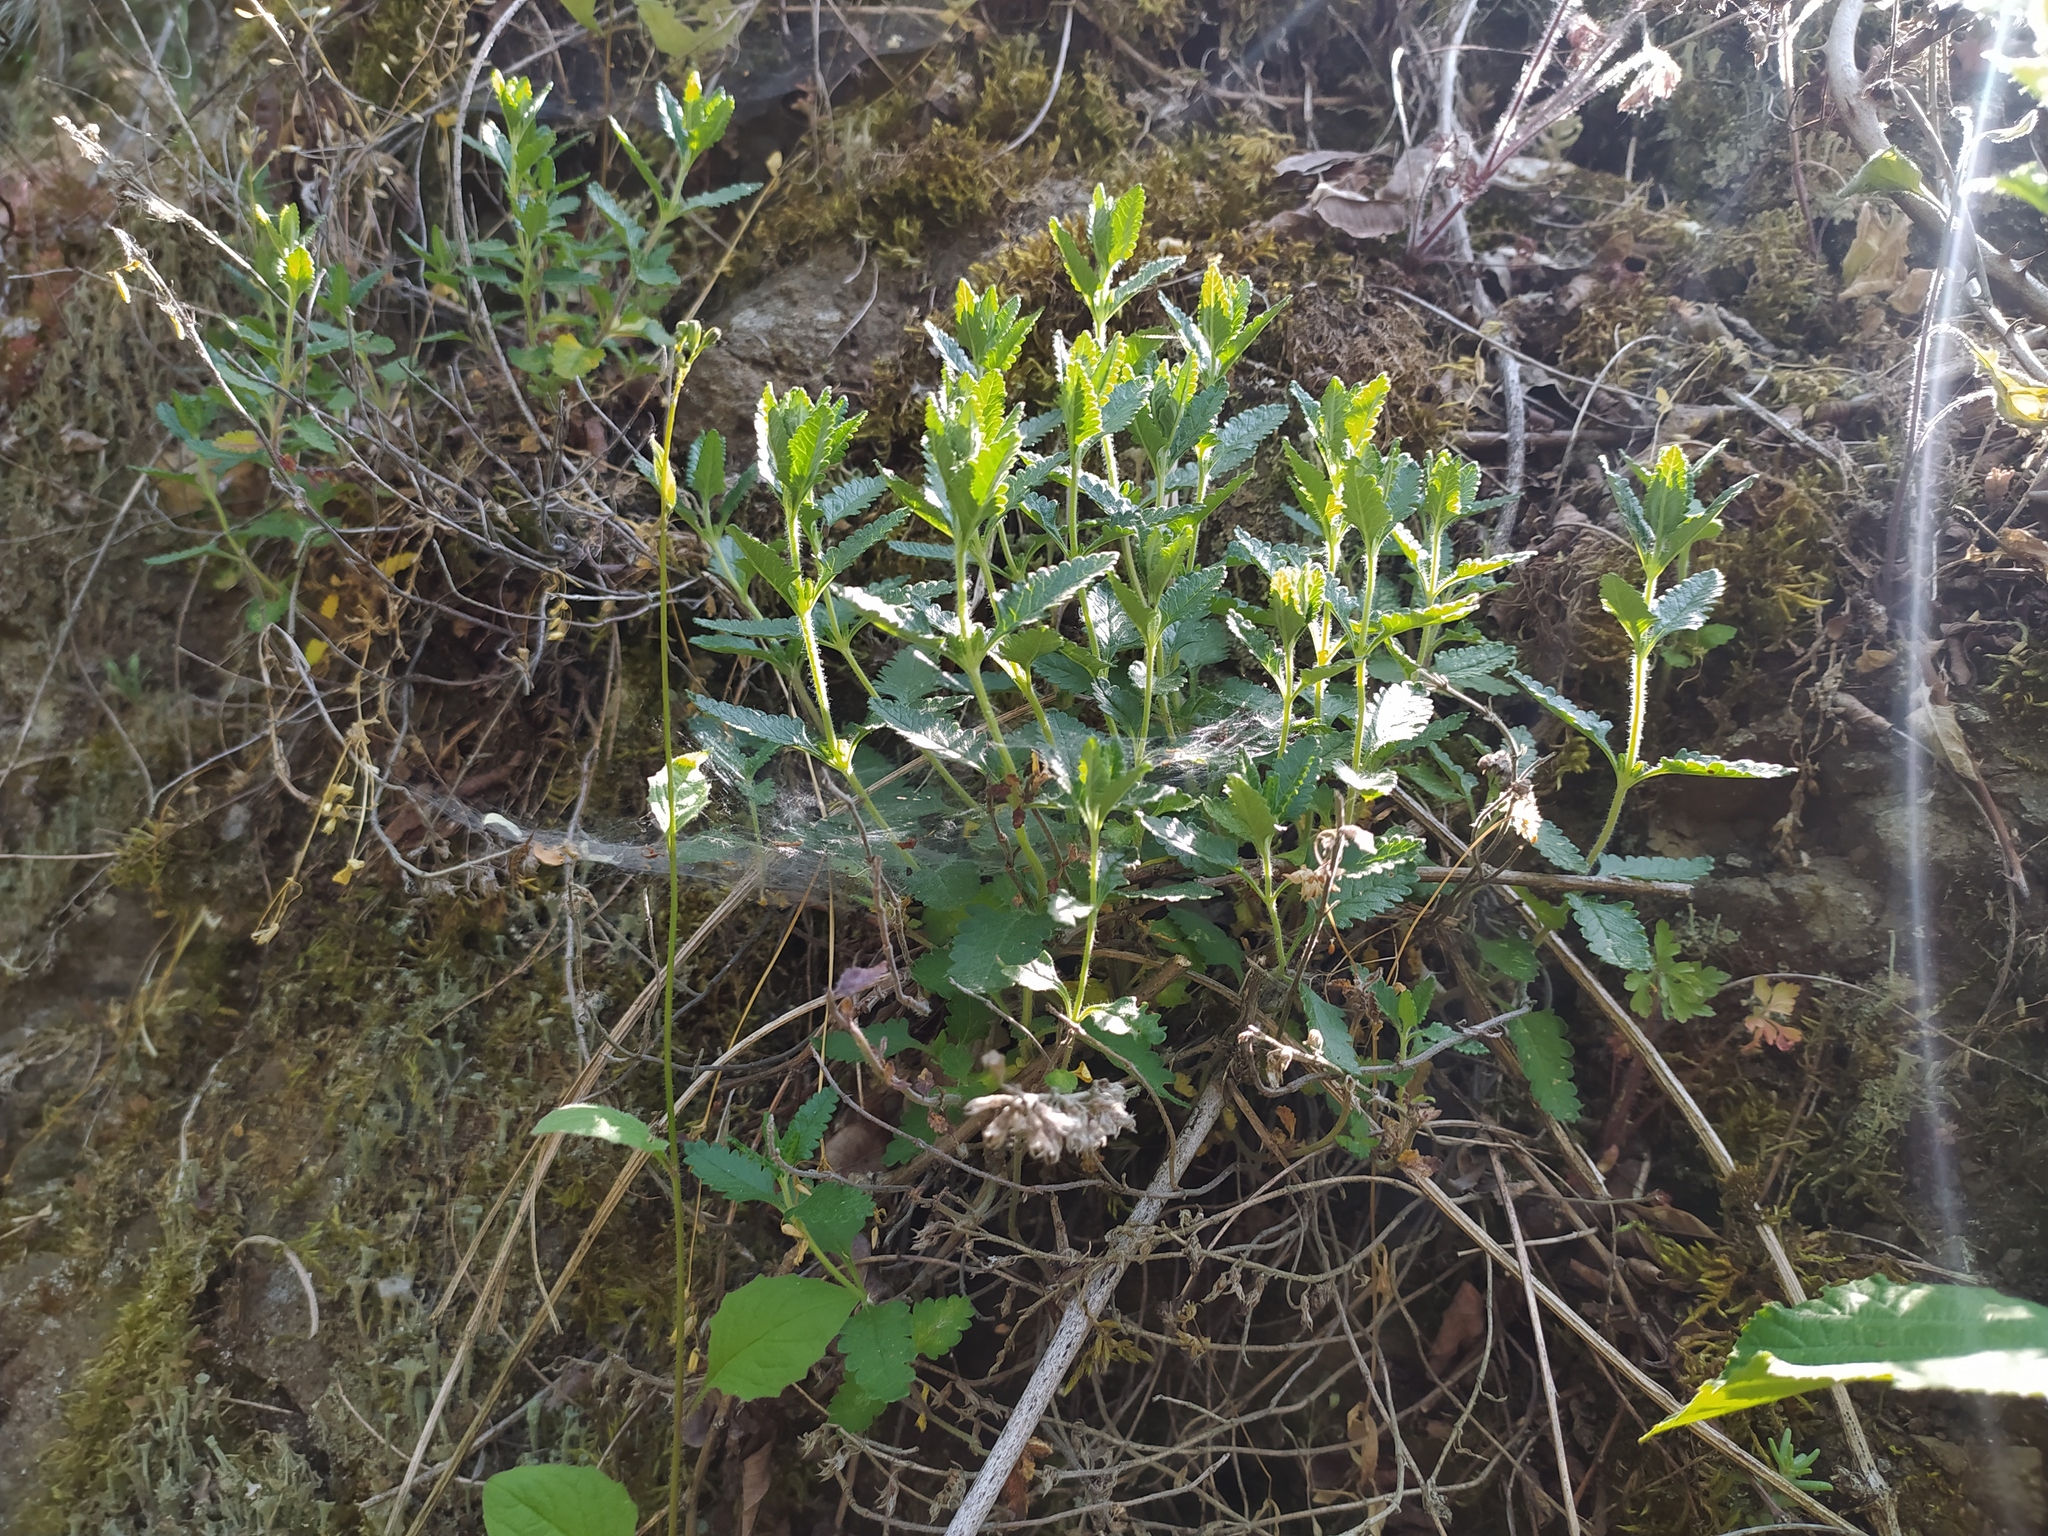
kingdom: Plantae
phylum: Tracheophyta
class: Magnoliopsida
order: Lamiales
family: Lamiaceae
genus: Teucrium
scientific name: Teucrium chamaedrys
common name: Wall germander
